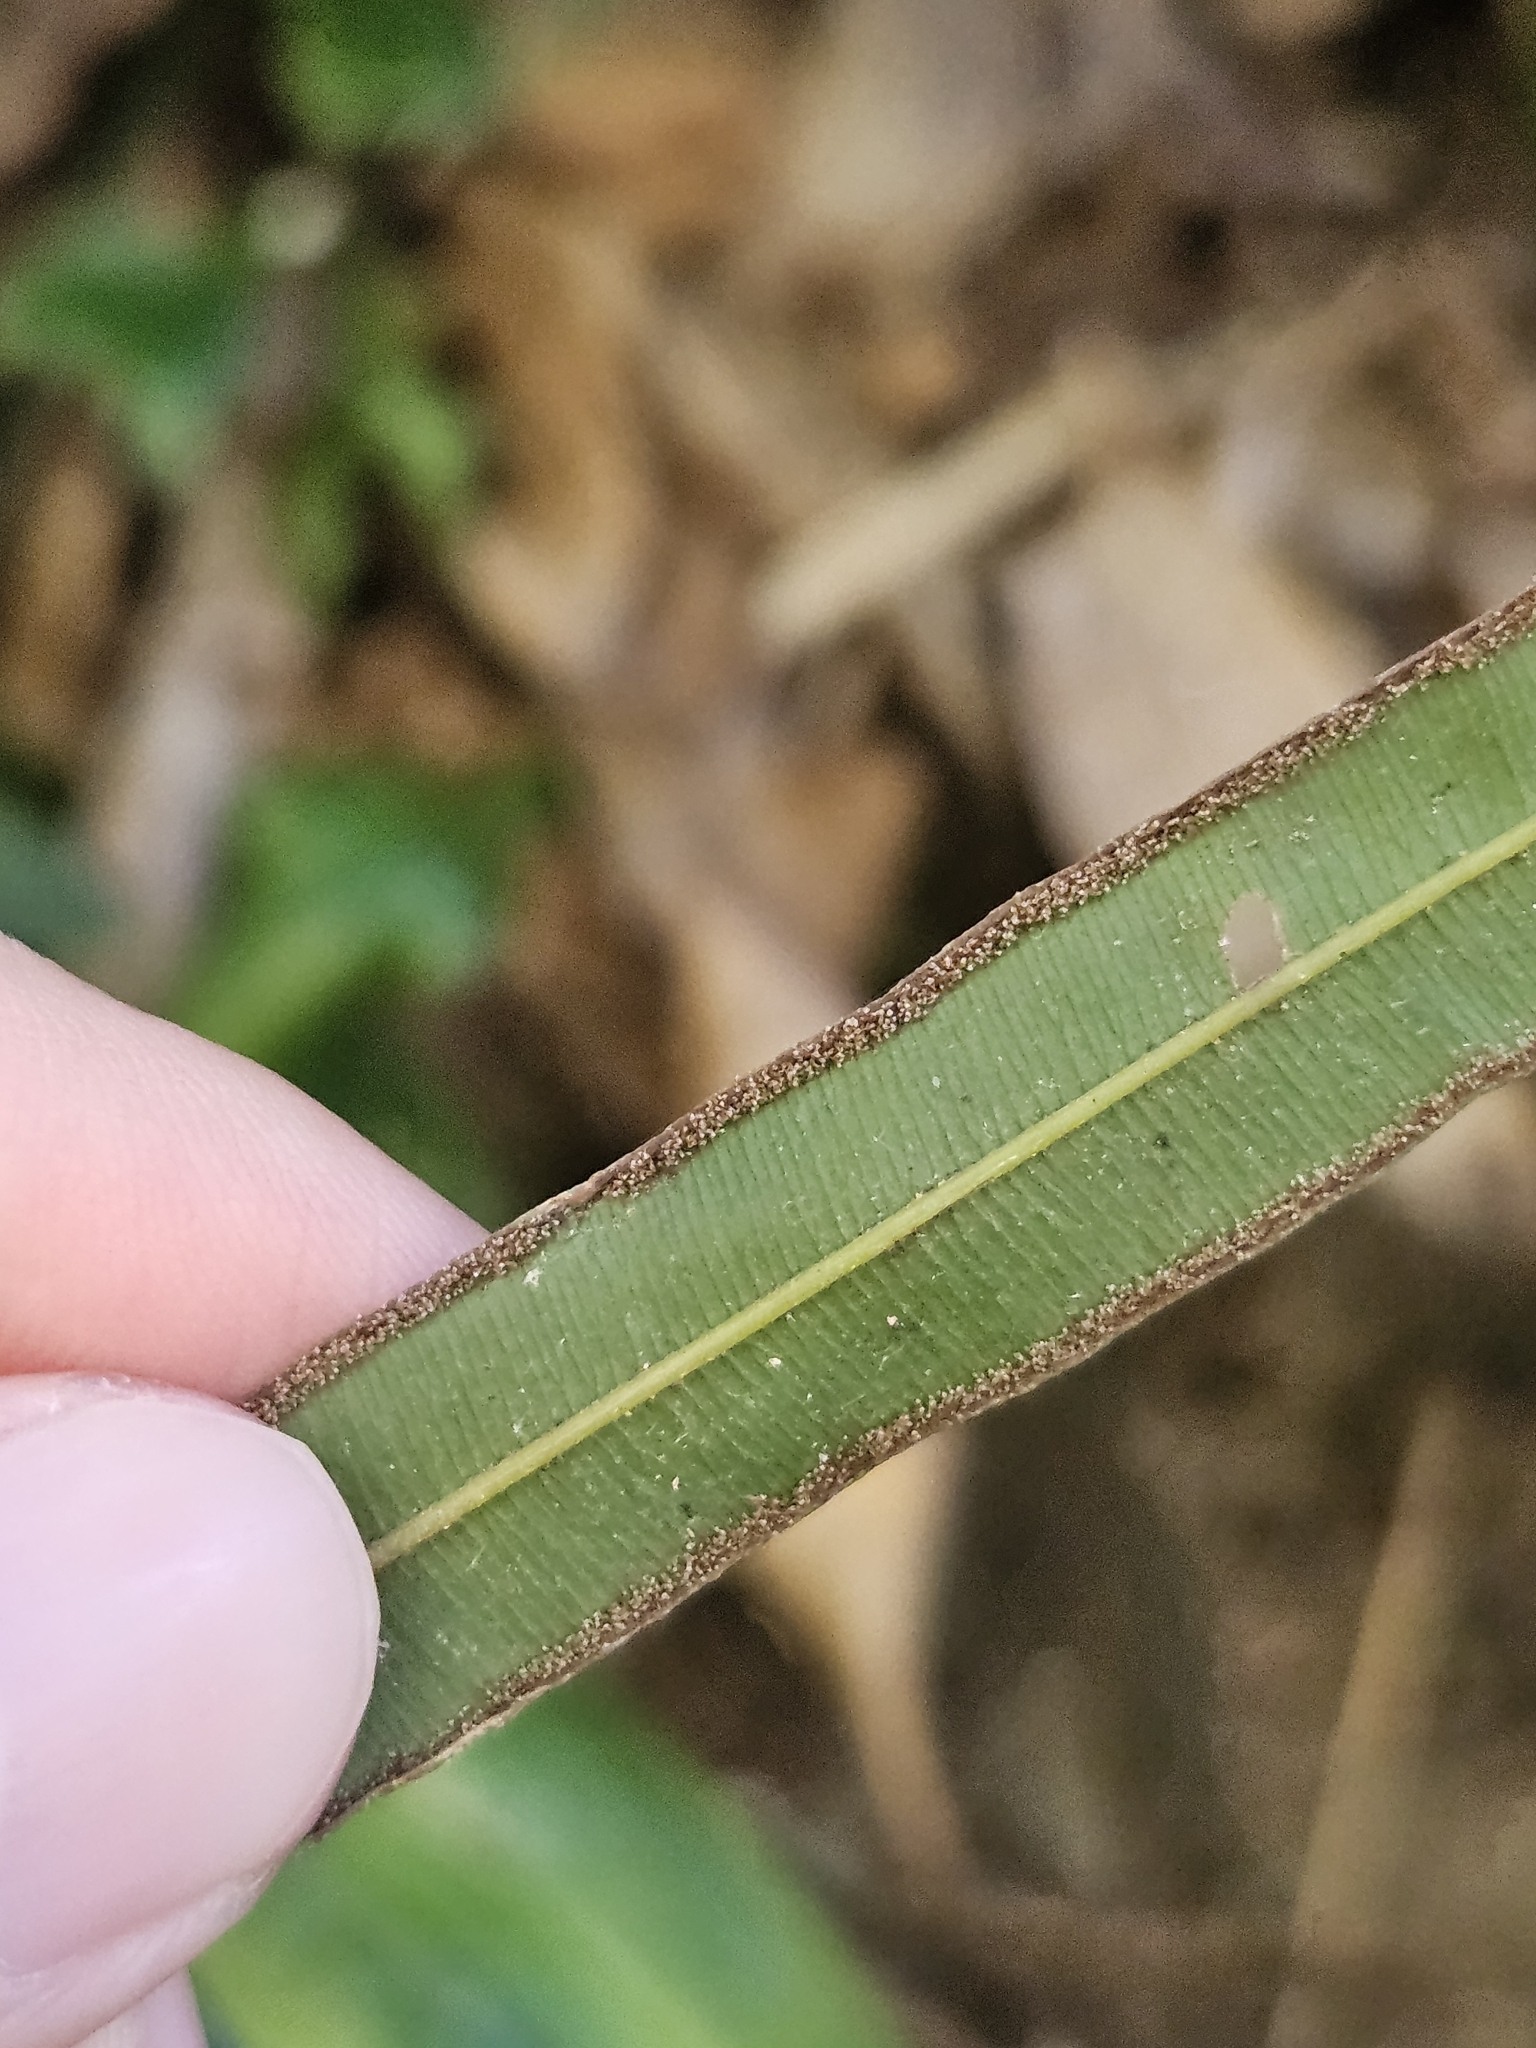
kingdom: Plantae
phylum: Tracheophyta
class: Polypodiopsida
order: Polypodiales
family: Pteridaceae
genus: Pteris
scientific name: Pteris longipinna
